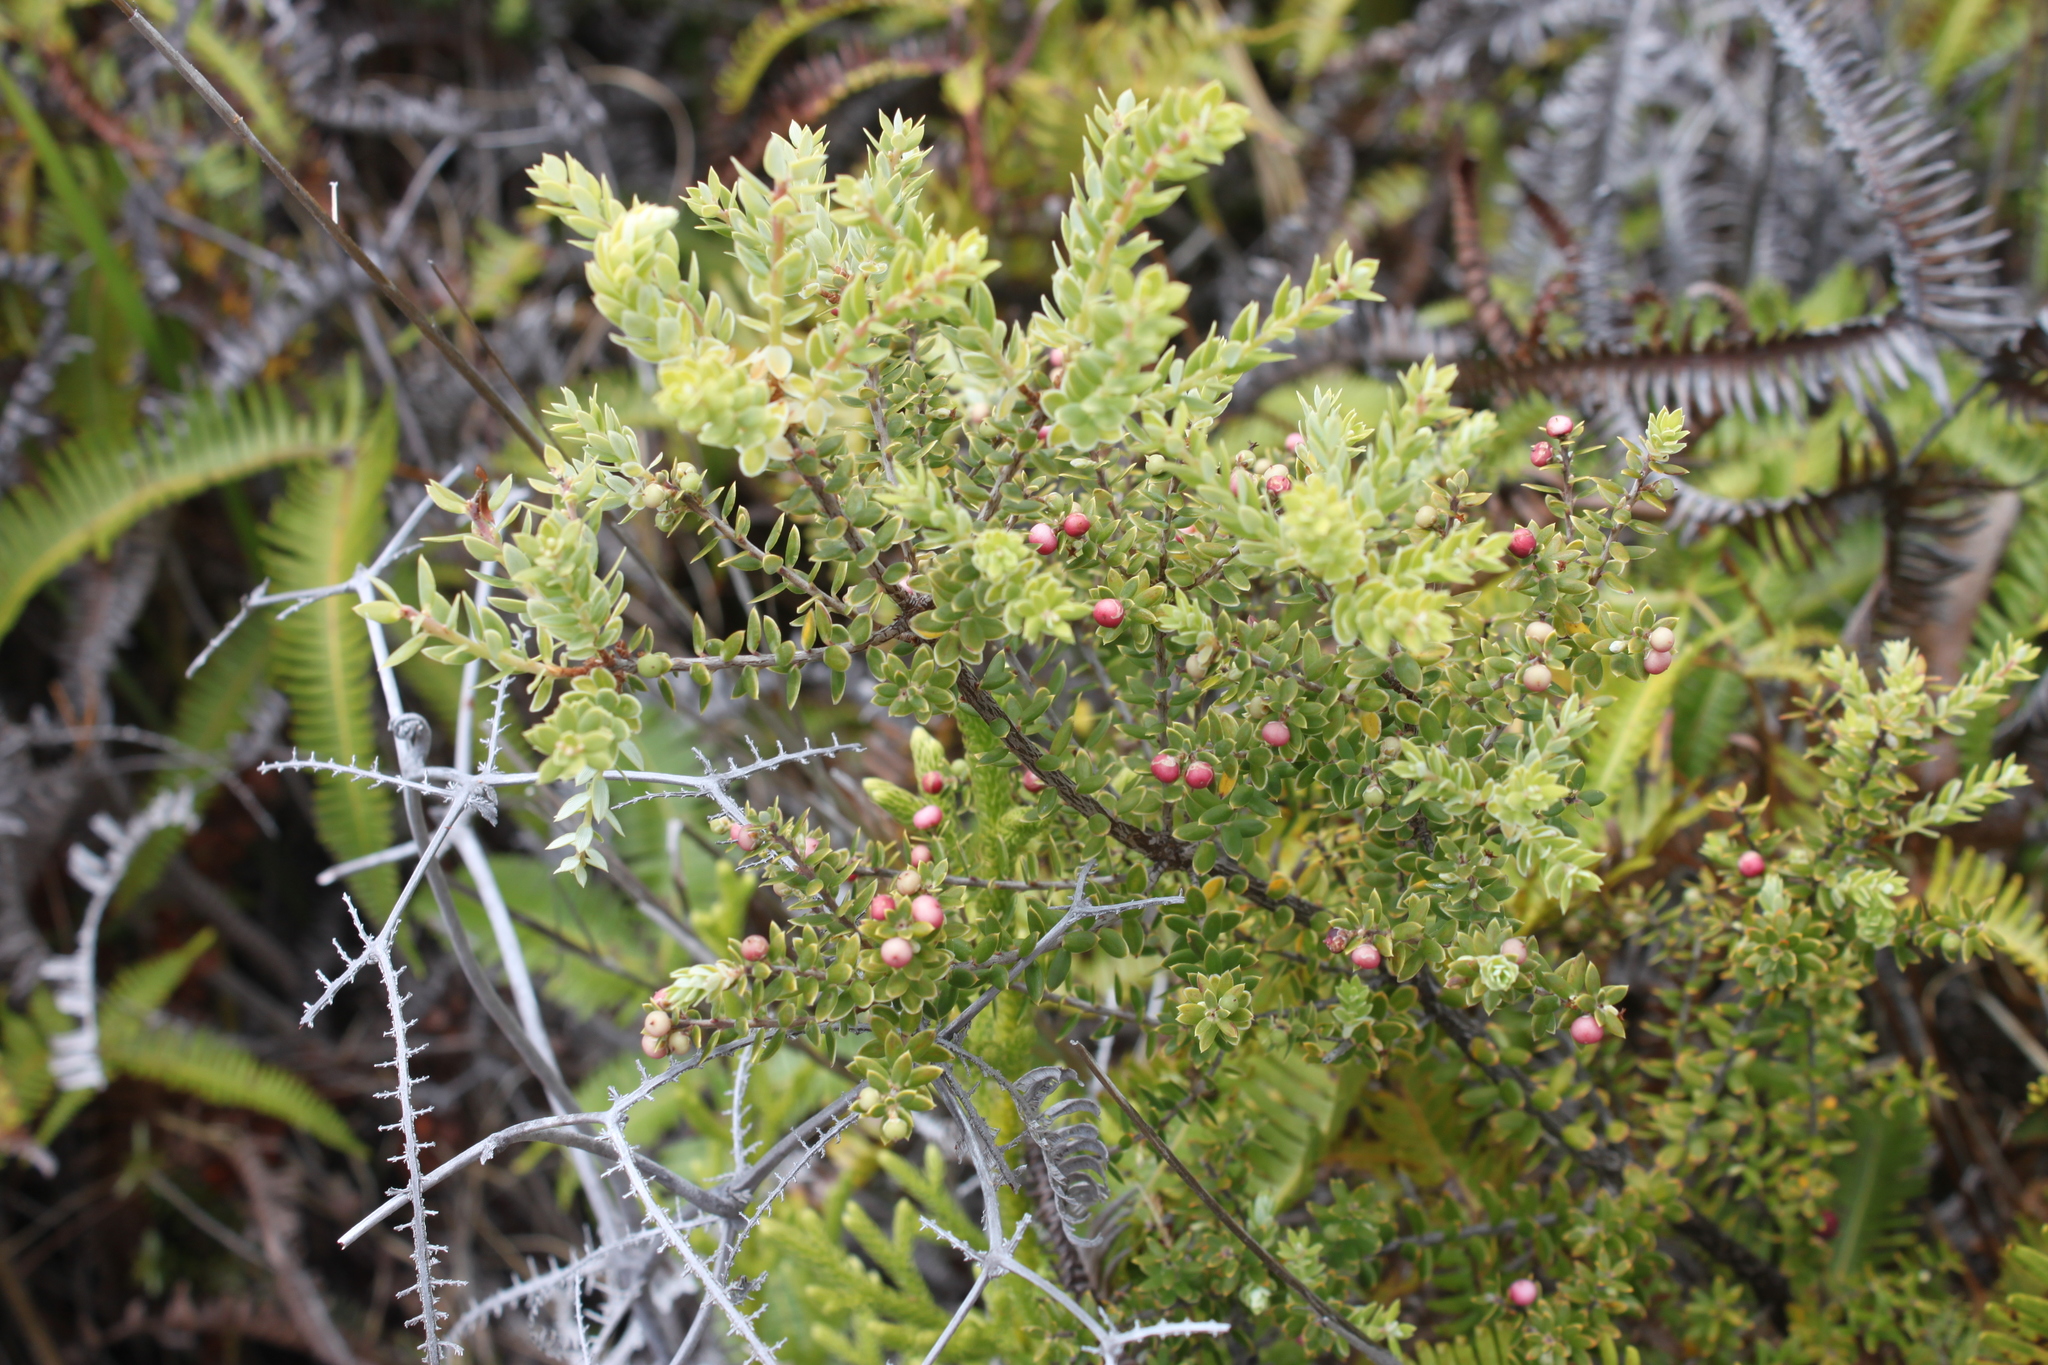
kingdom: Plantae
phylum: Tracheophyta
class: Magnoliopsida
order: Ericales
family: Ericaceae
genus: Leptecophylla
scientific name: Leptecophylla tameiameiae
